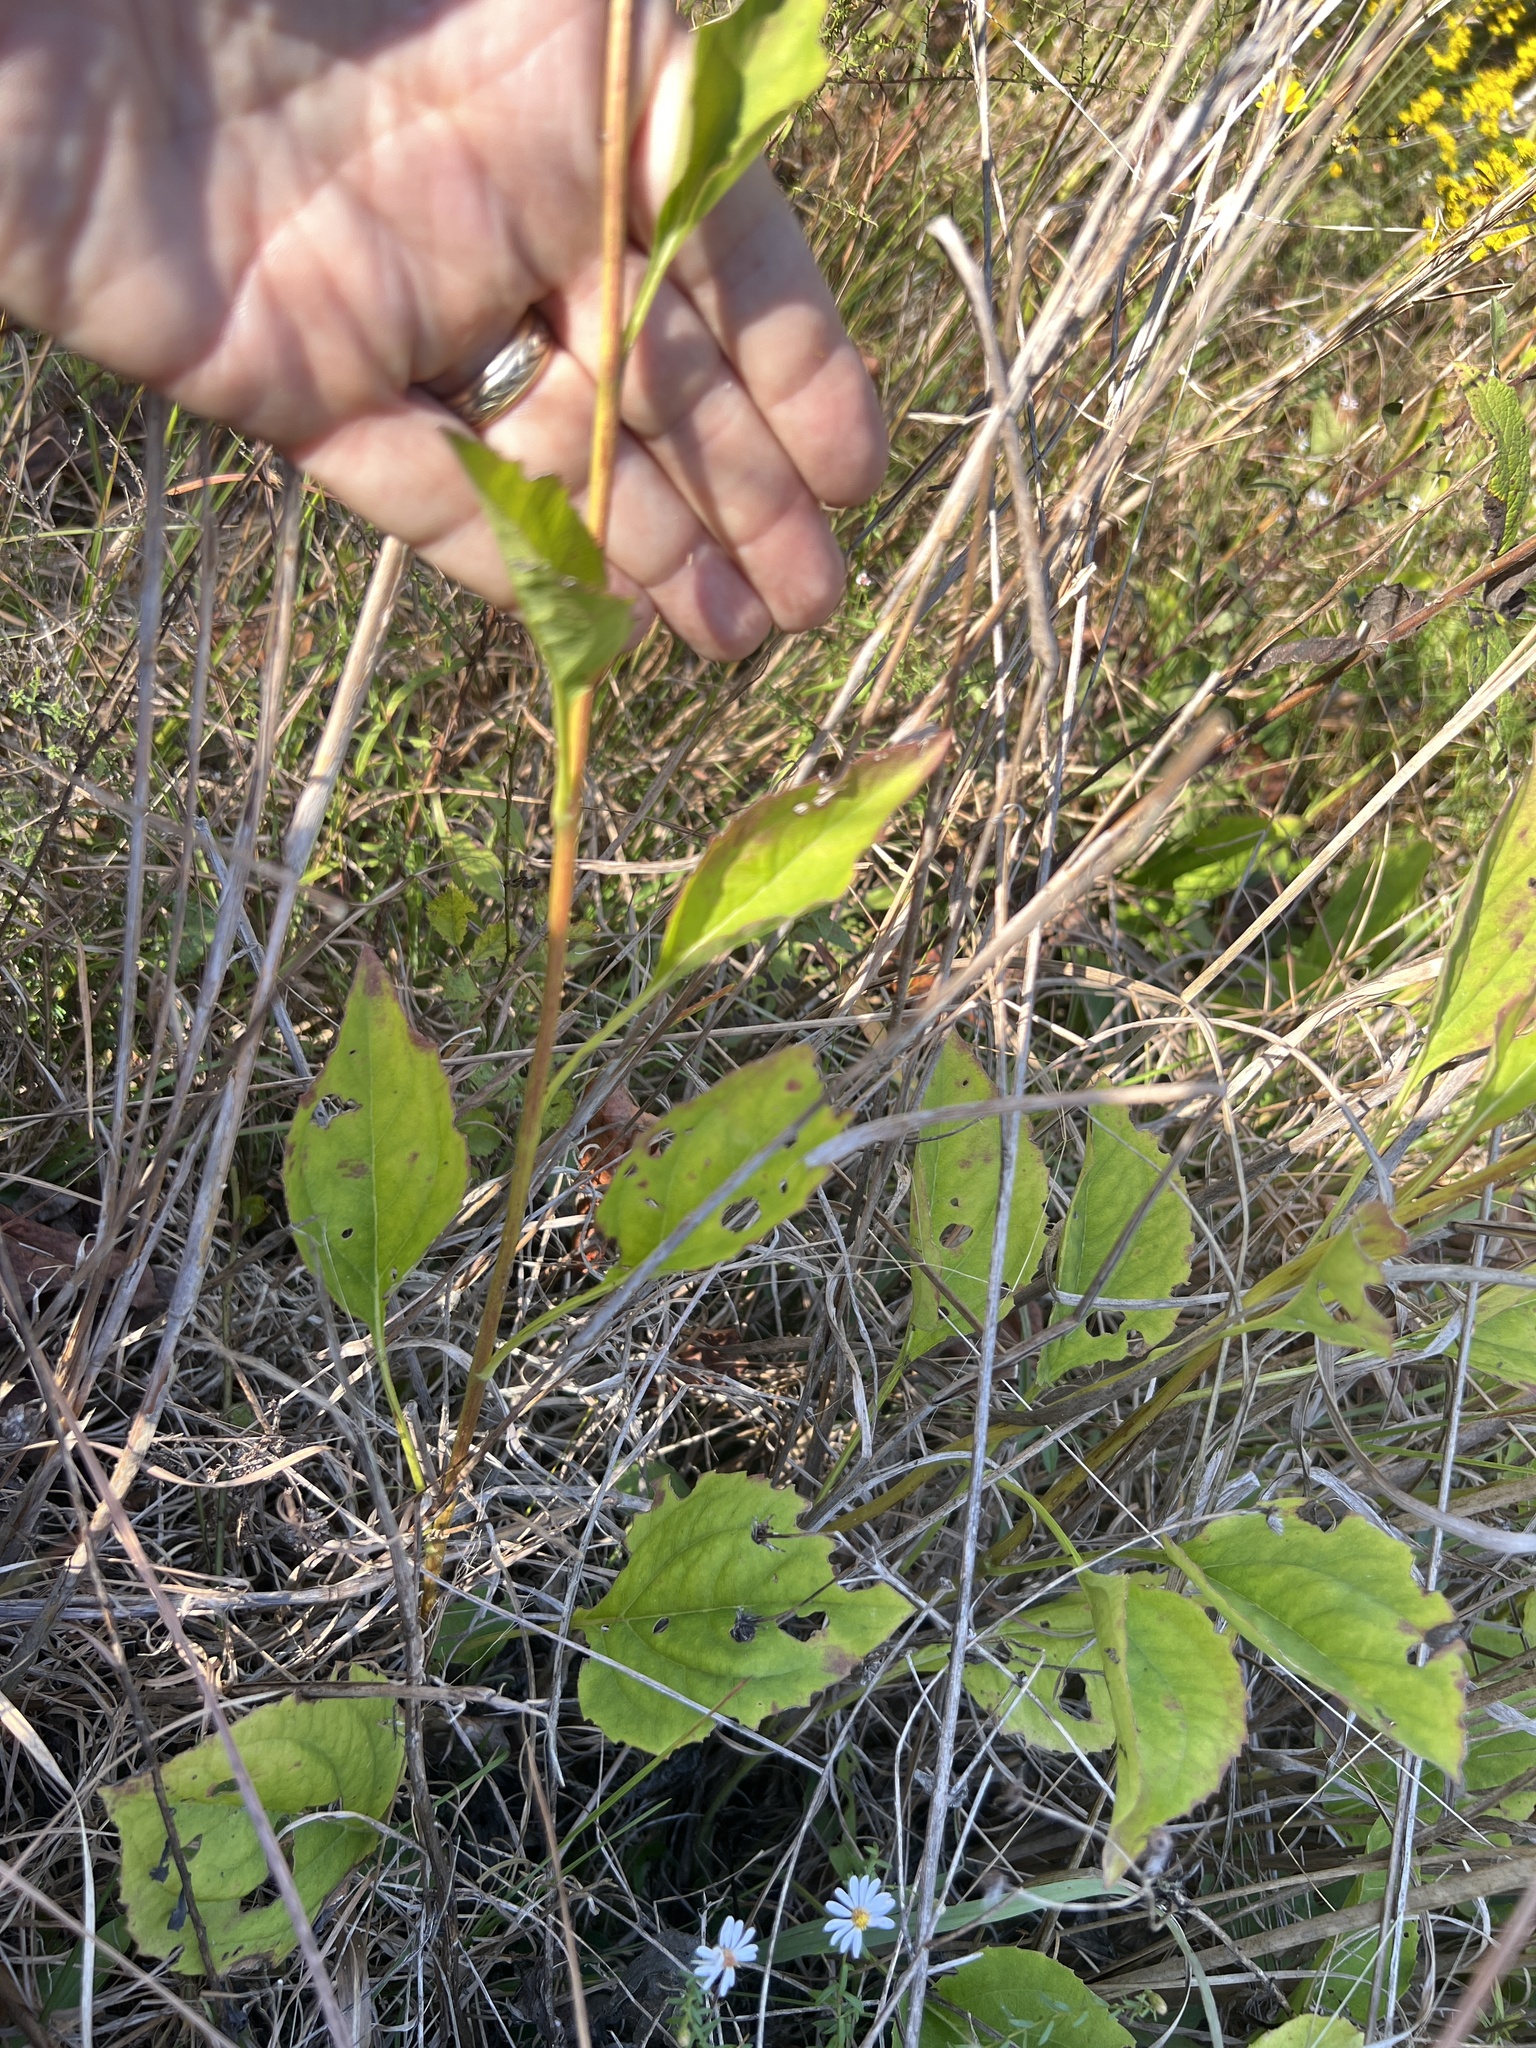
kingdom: Plantae
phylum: Tracheophyta
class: Magnoliopsida
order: Asterales
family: Asteraceae
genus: Rudbeckia
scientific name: Rudbeckia heliopsidis
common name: Little river black-eyed-susan
